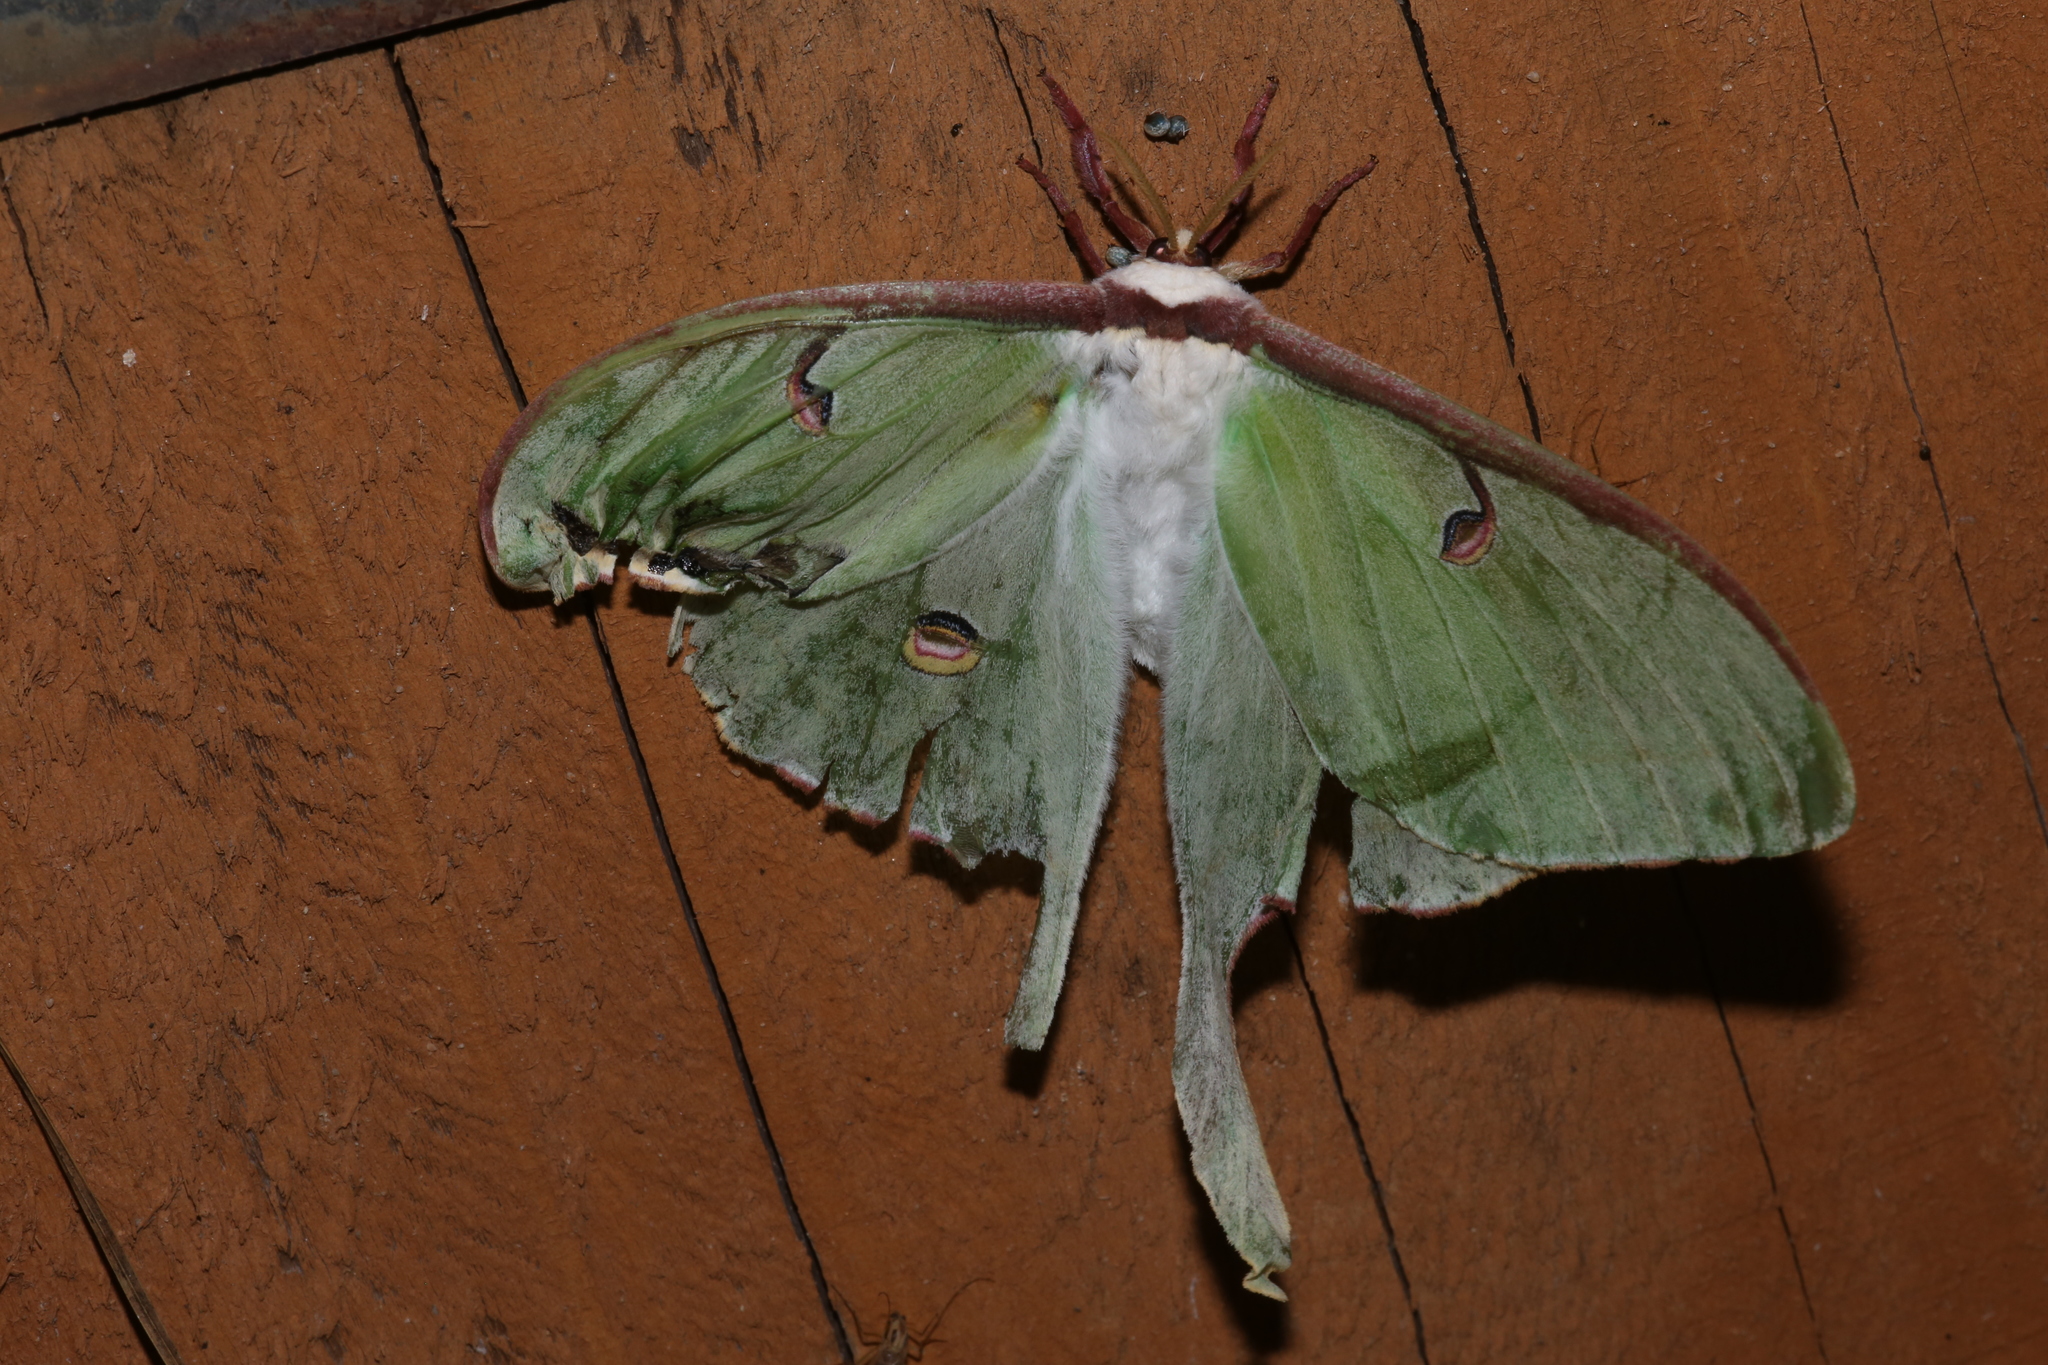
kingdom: Animalia
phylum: Arthropoda
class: Insecta
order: Lepidoptera
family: Saturniidae
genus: Actias
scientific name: Actias luna
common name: Luna moth
